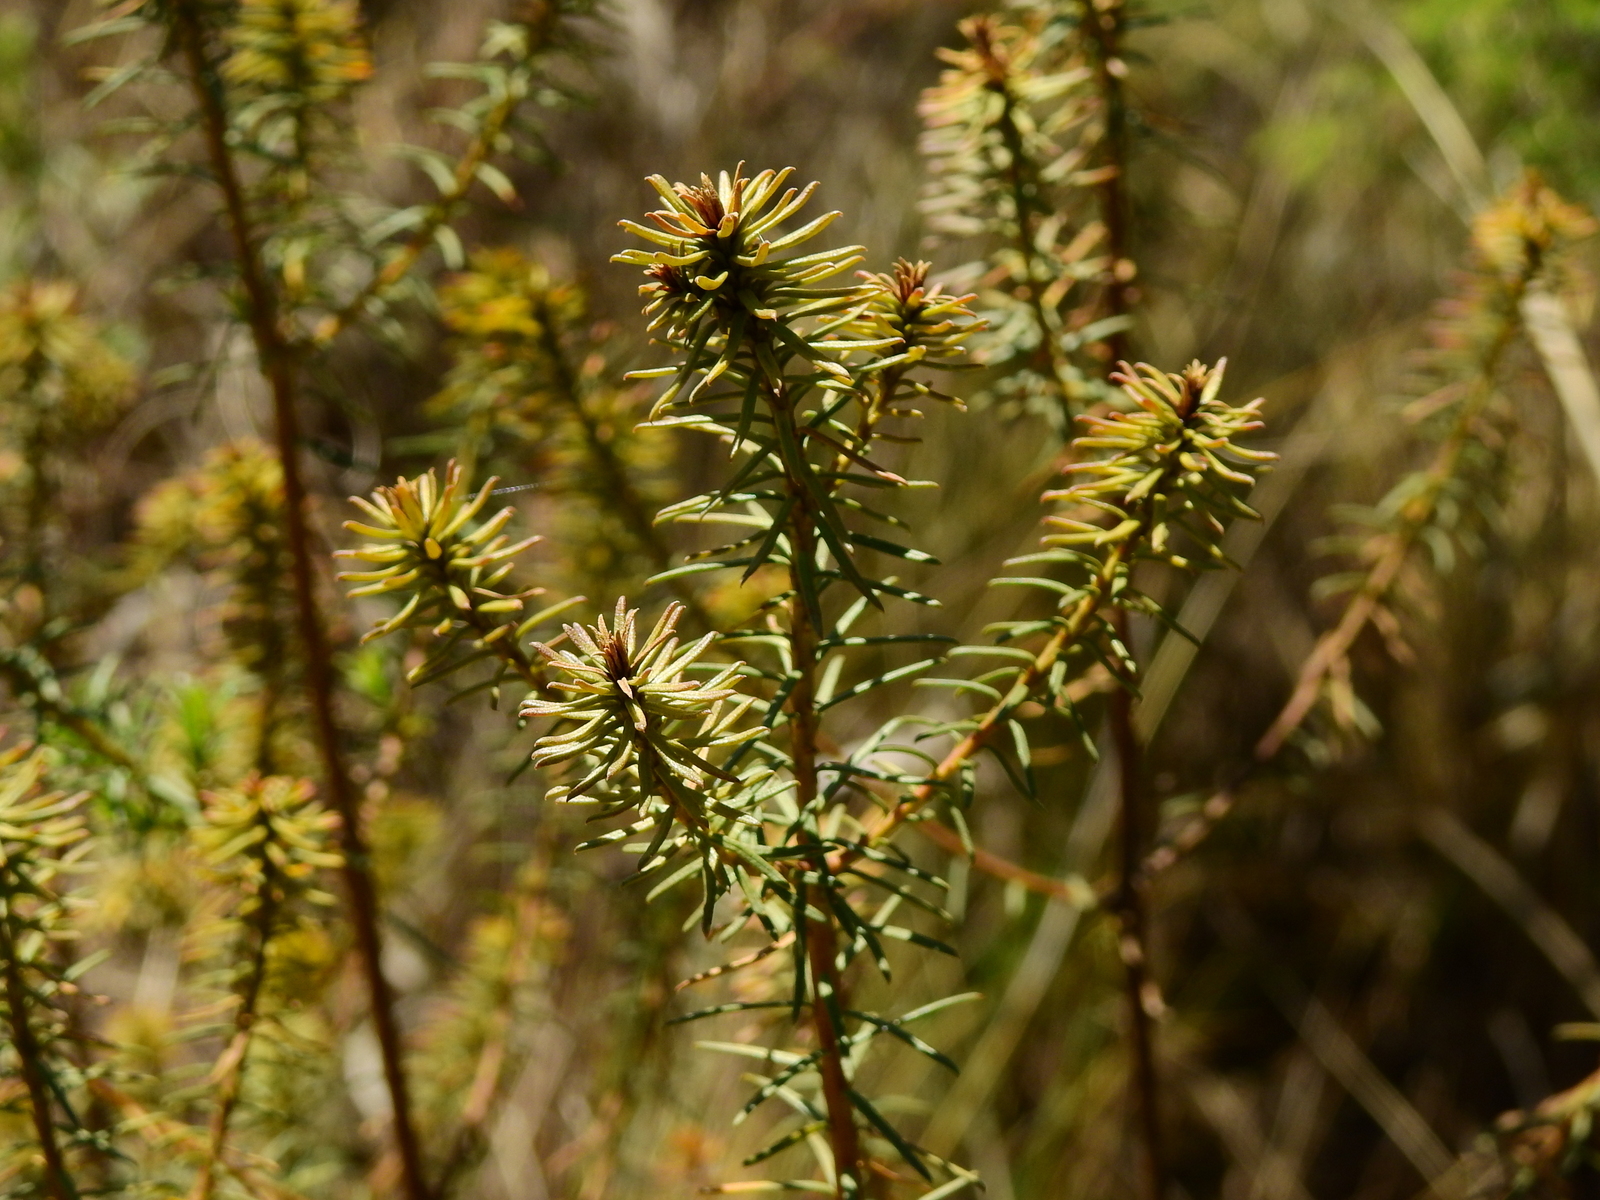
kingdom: Plantae
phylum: Tracheophyta
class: Magnoliopsida
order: Asterales
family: Asteraceae
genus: Baccharis
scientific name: Baccharis aliena
